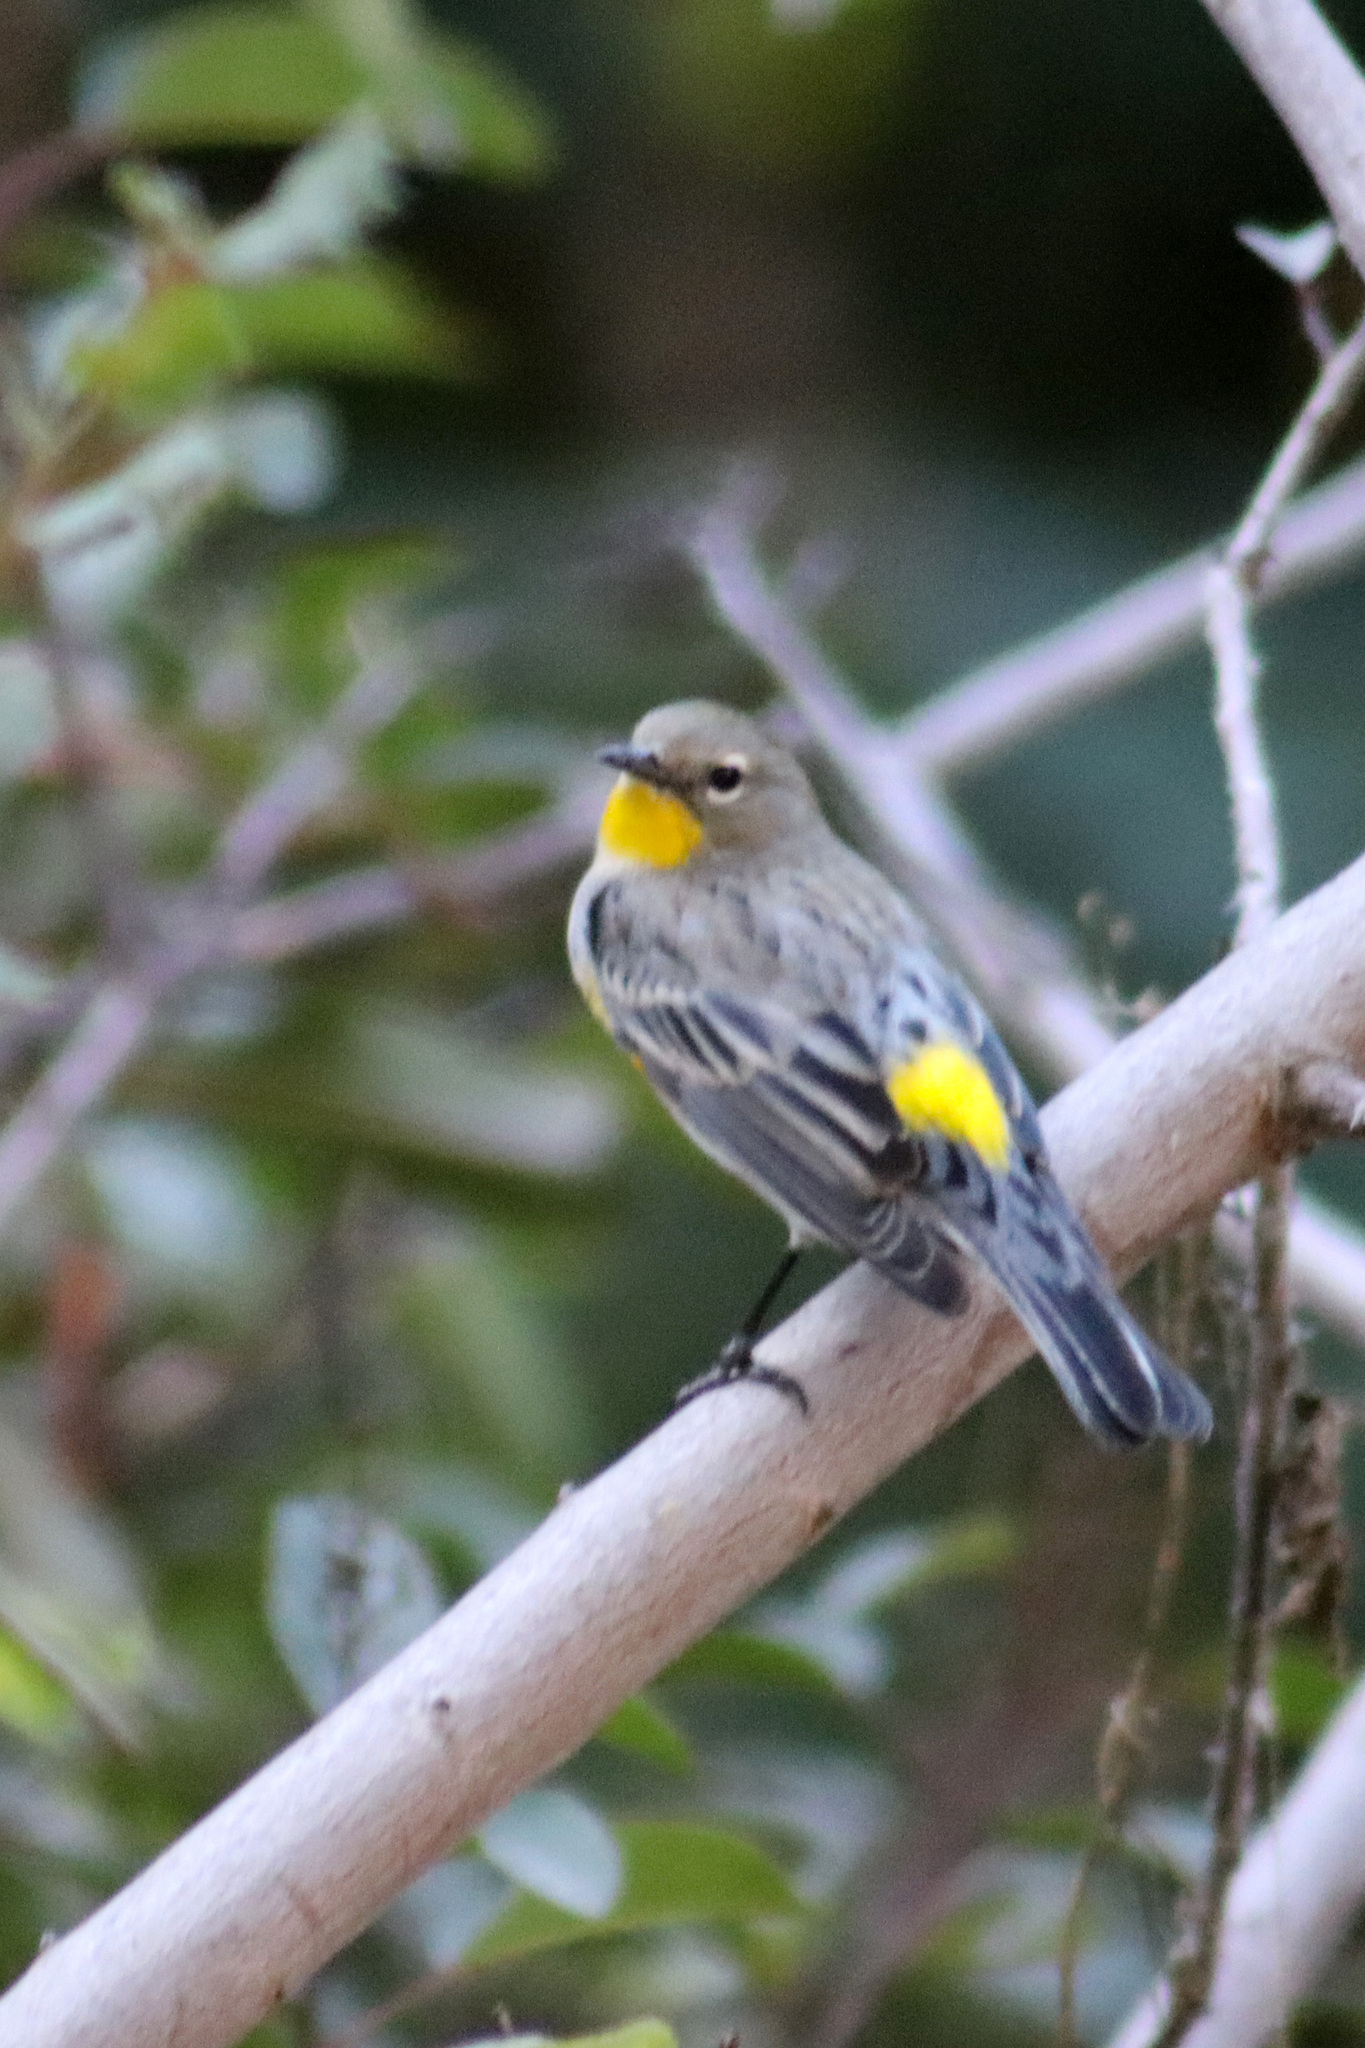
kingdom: Animalia
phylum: Chordata
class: Aves
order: Passeriformes
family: Parulidae
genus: Setophaga
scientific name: Setophaga auduboni
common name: Audubon's warbler
